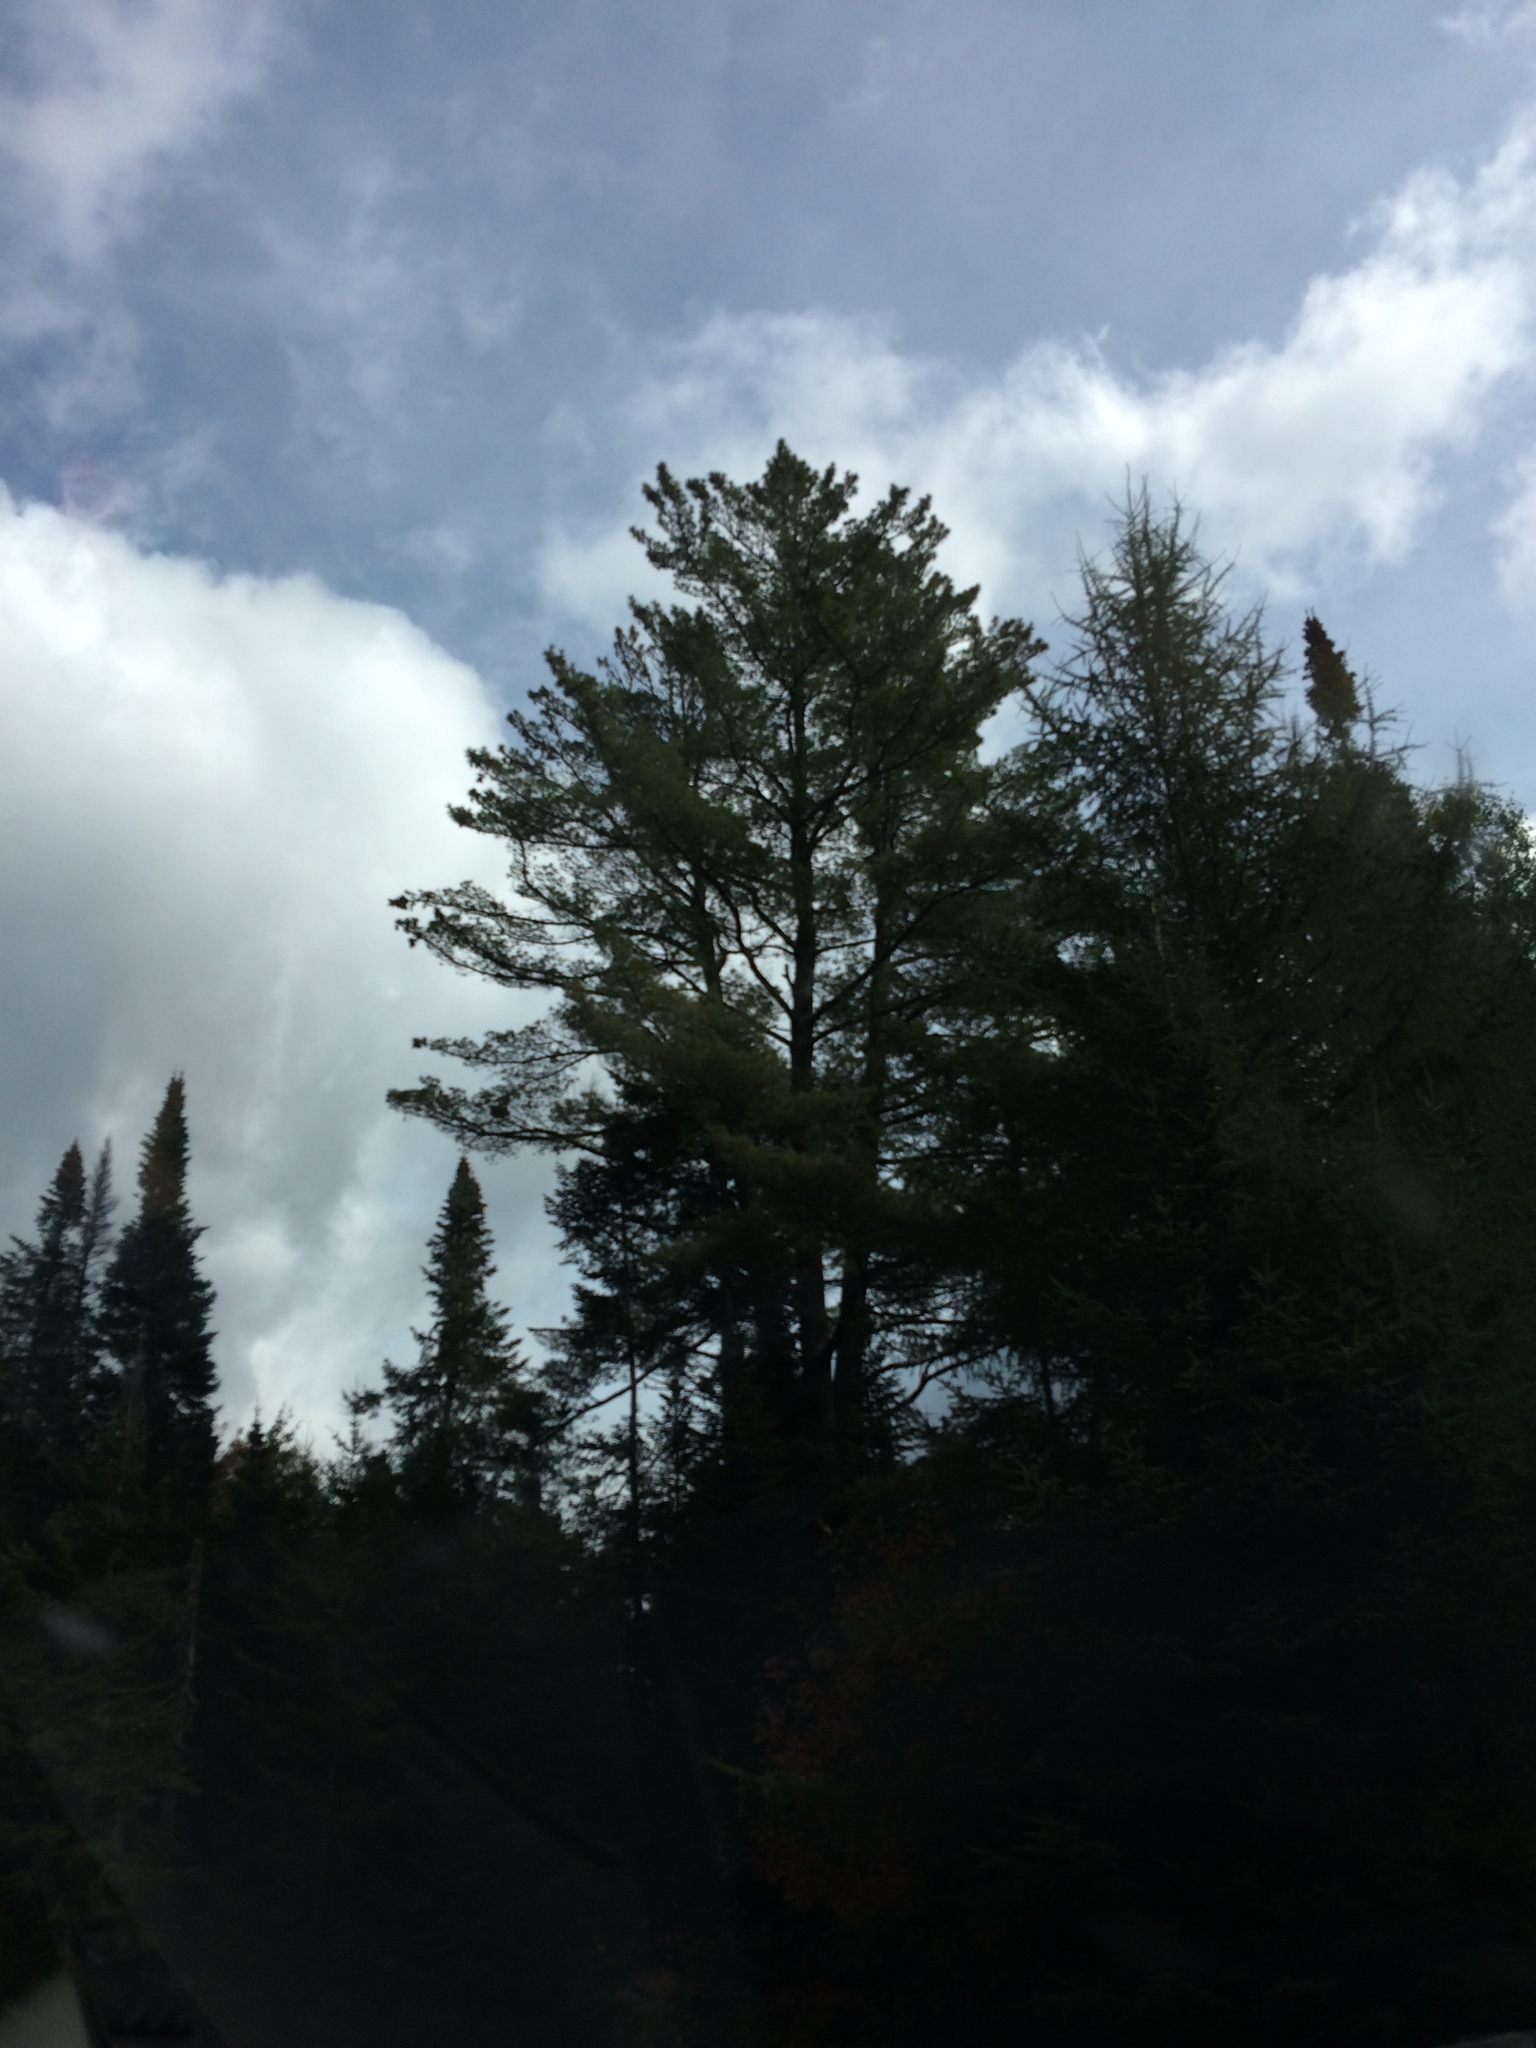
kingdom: Plantae
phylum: Tracheophyta
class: Pinopsida
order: Pinales
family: Pinaceae
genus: Pinus
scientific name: Pinus strobus
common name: Weymouth pine
